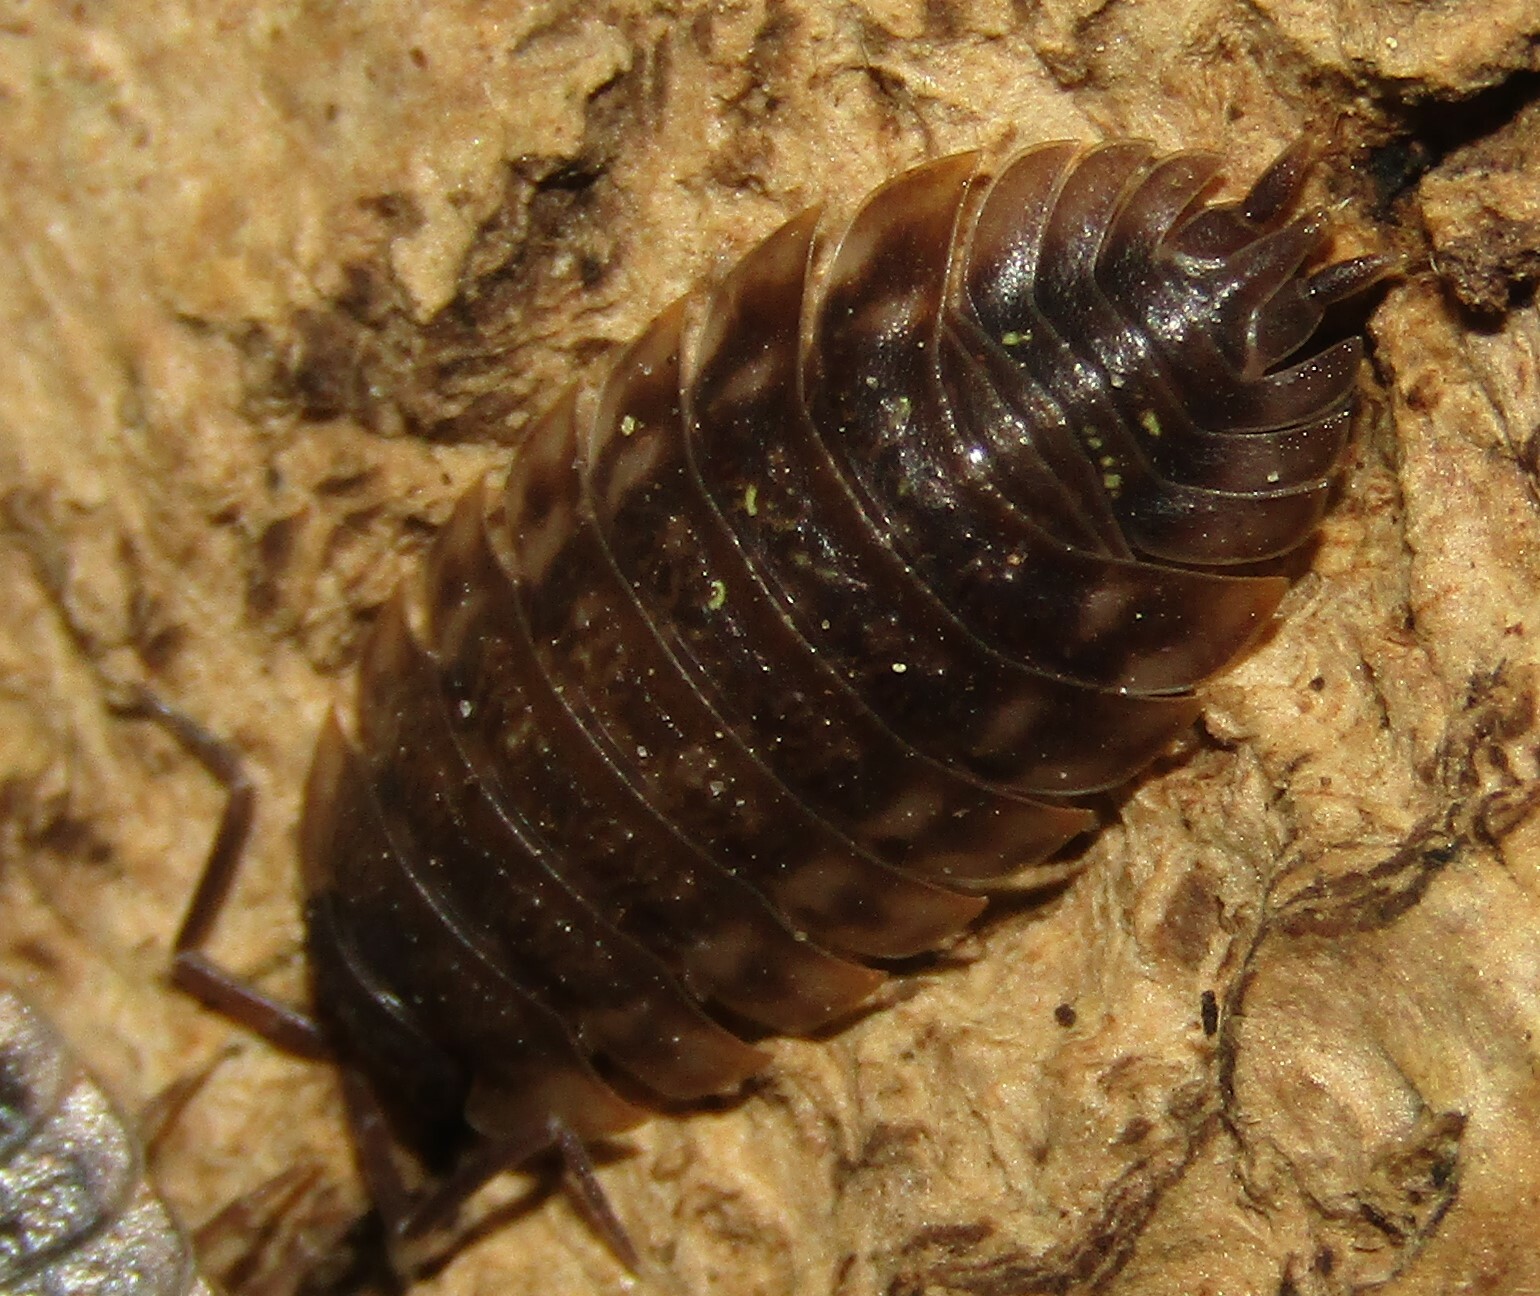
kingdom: Animalia
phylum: Arthropoda
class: Malacostraca
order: Isopoda
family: Oniscidae
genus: Oniscus
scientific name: Oniscus asellus
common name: Common shiny woodlouse
